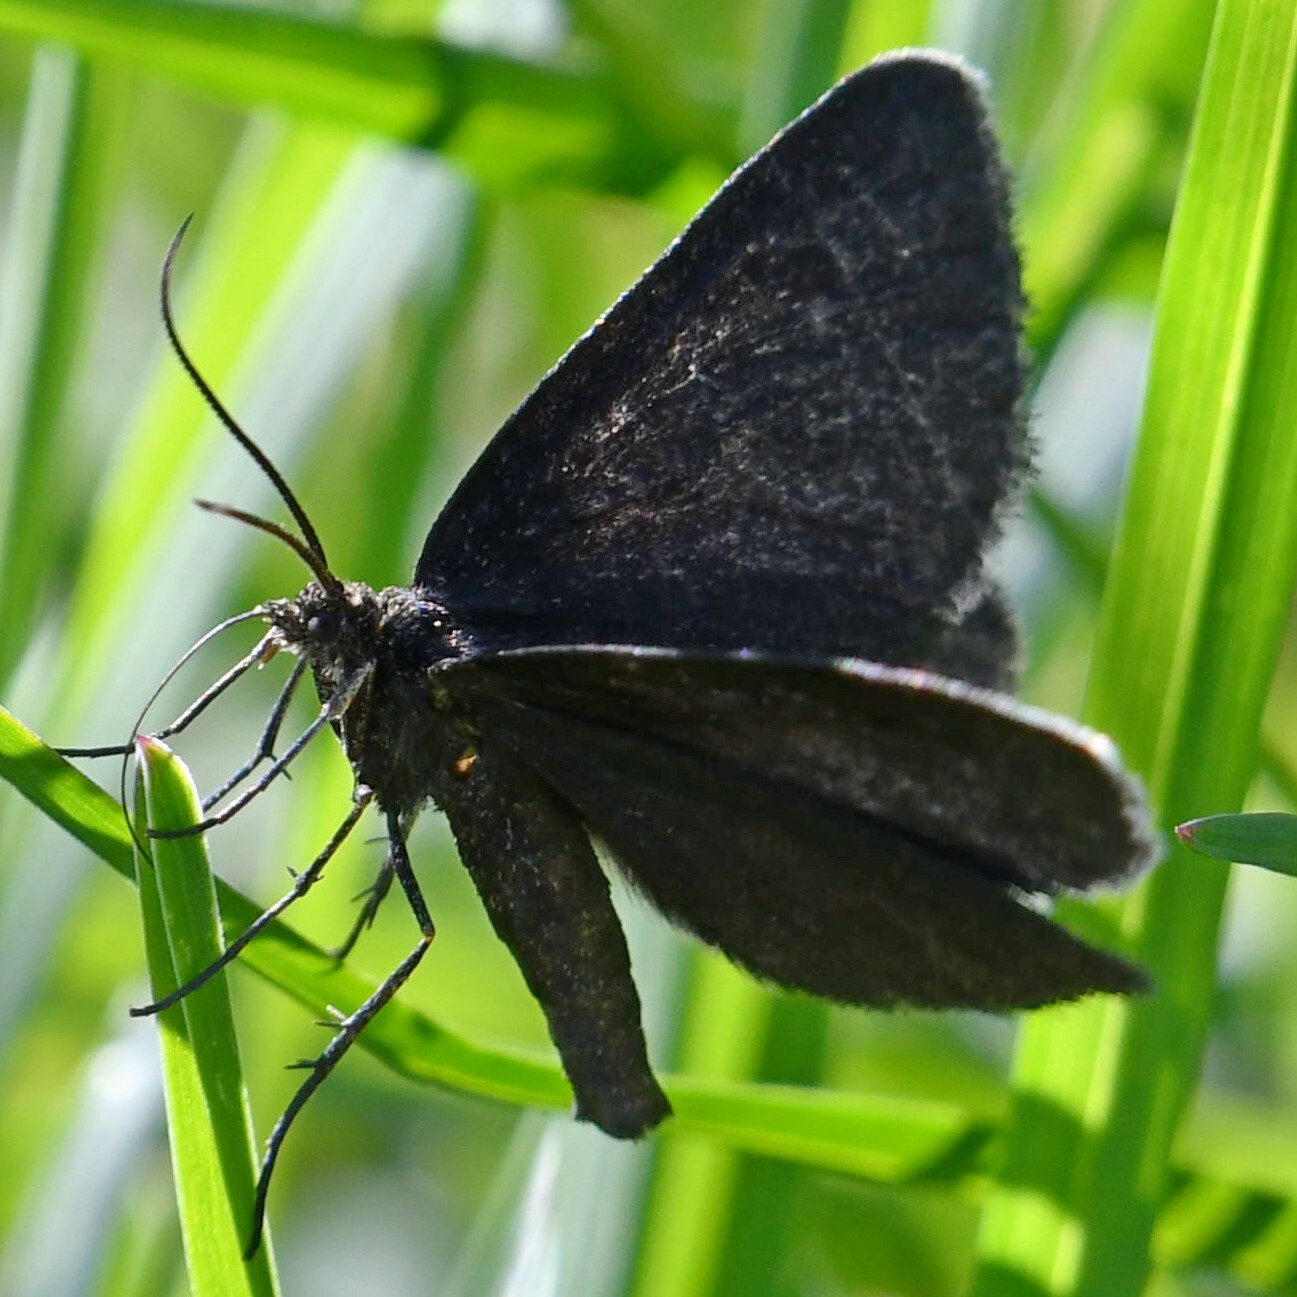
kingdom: Animalia
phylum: Arthropoda
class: Insecta
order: Lepidoptera
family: Geometridae
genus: Odezia
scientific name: Odezia atrata
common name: Chimney sweeper
